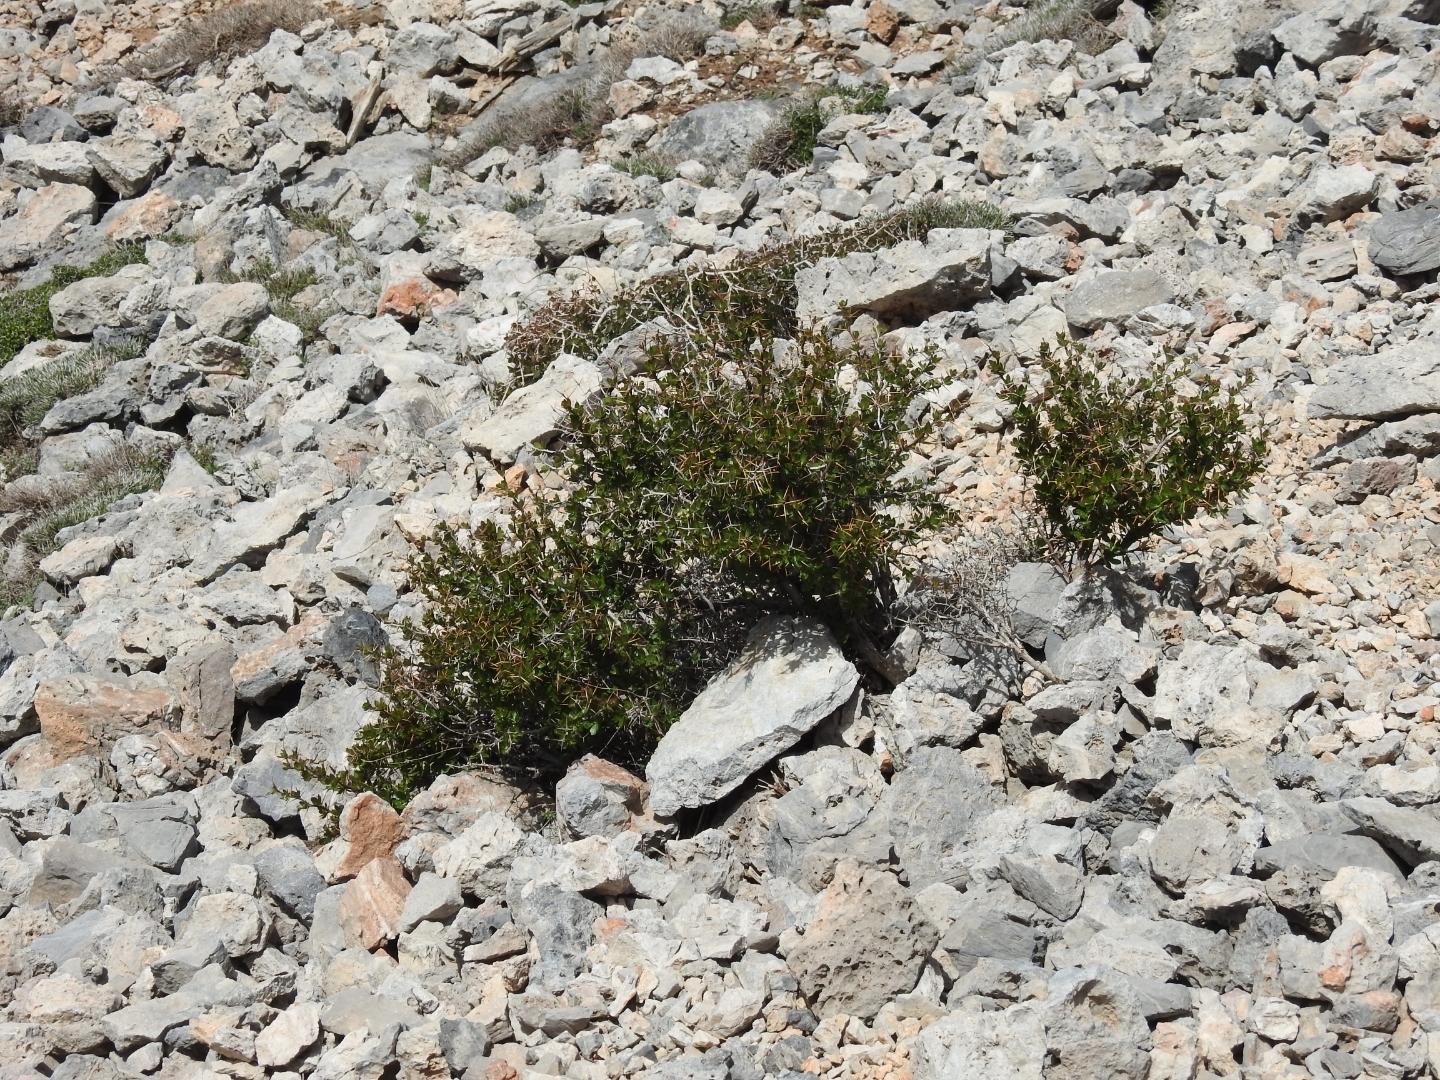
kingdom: Plantae
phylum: Tracheophyta
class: Magnoliopsida
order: Ranunculales
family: Berberidaceae
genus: Berberis
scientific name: Berberis cretica
